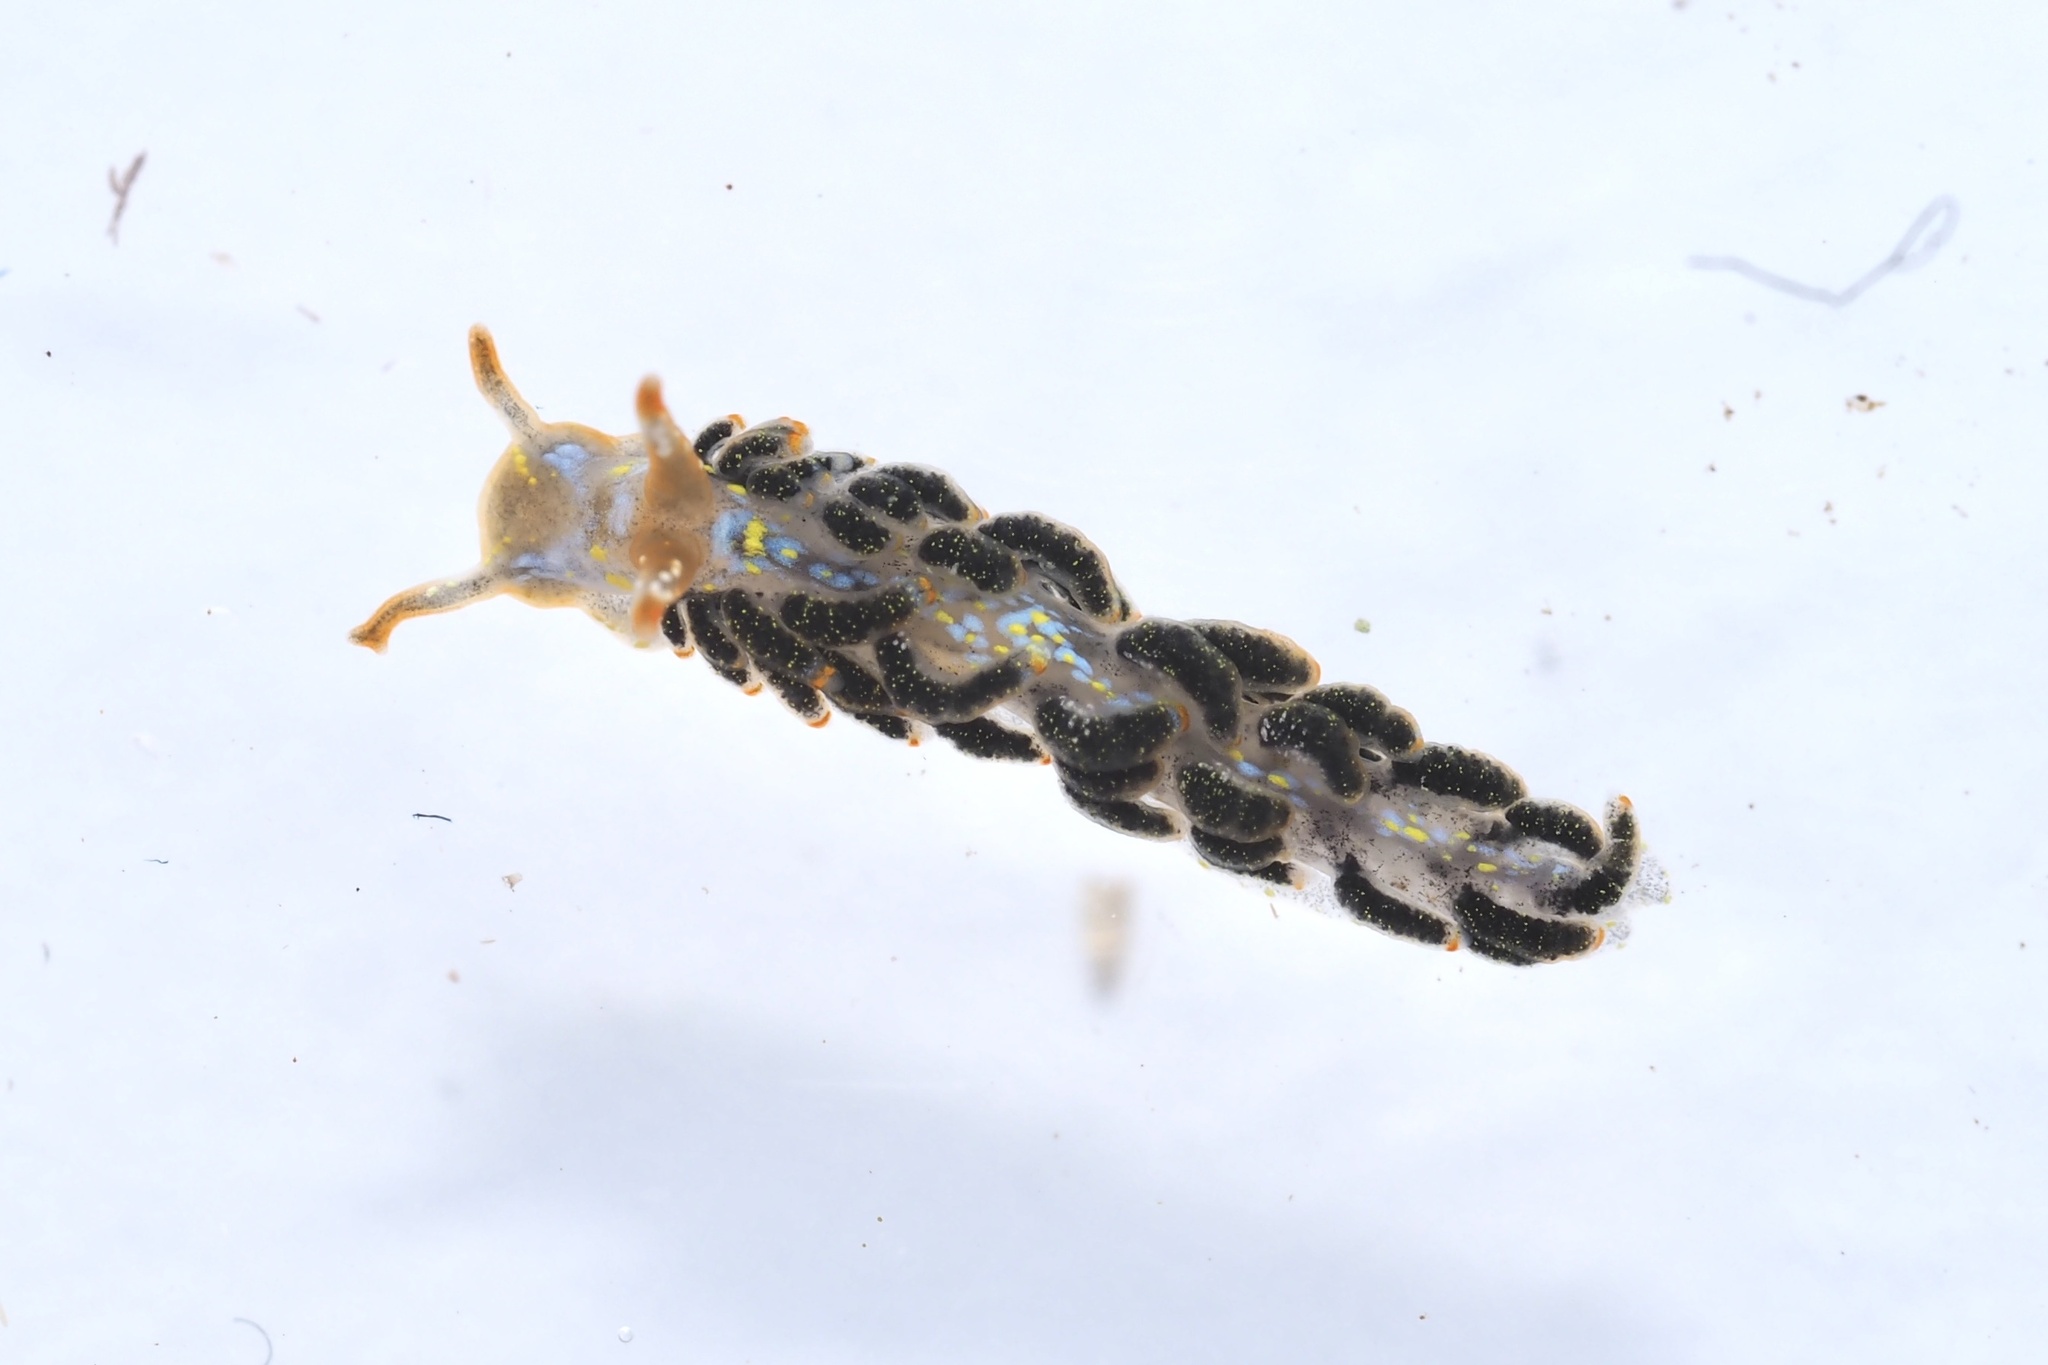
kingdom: Animalia
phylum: Mollusca
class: Gastropoda
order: Nudibranchia
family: Trinchesiidae
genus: Trinchesia
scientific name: Trinchesia diversicolor
